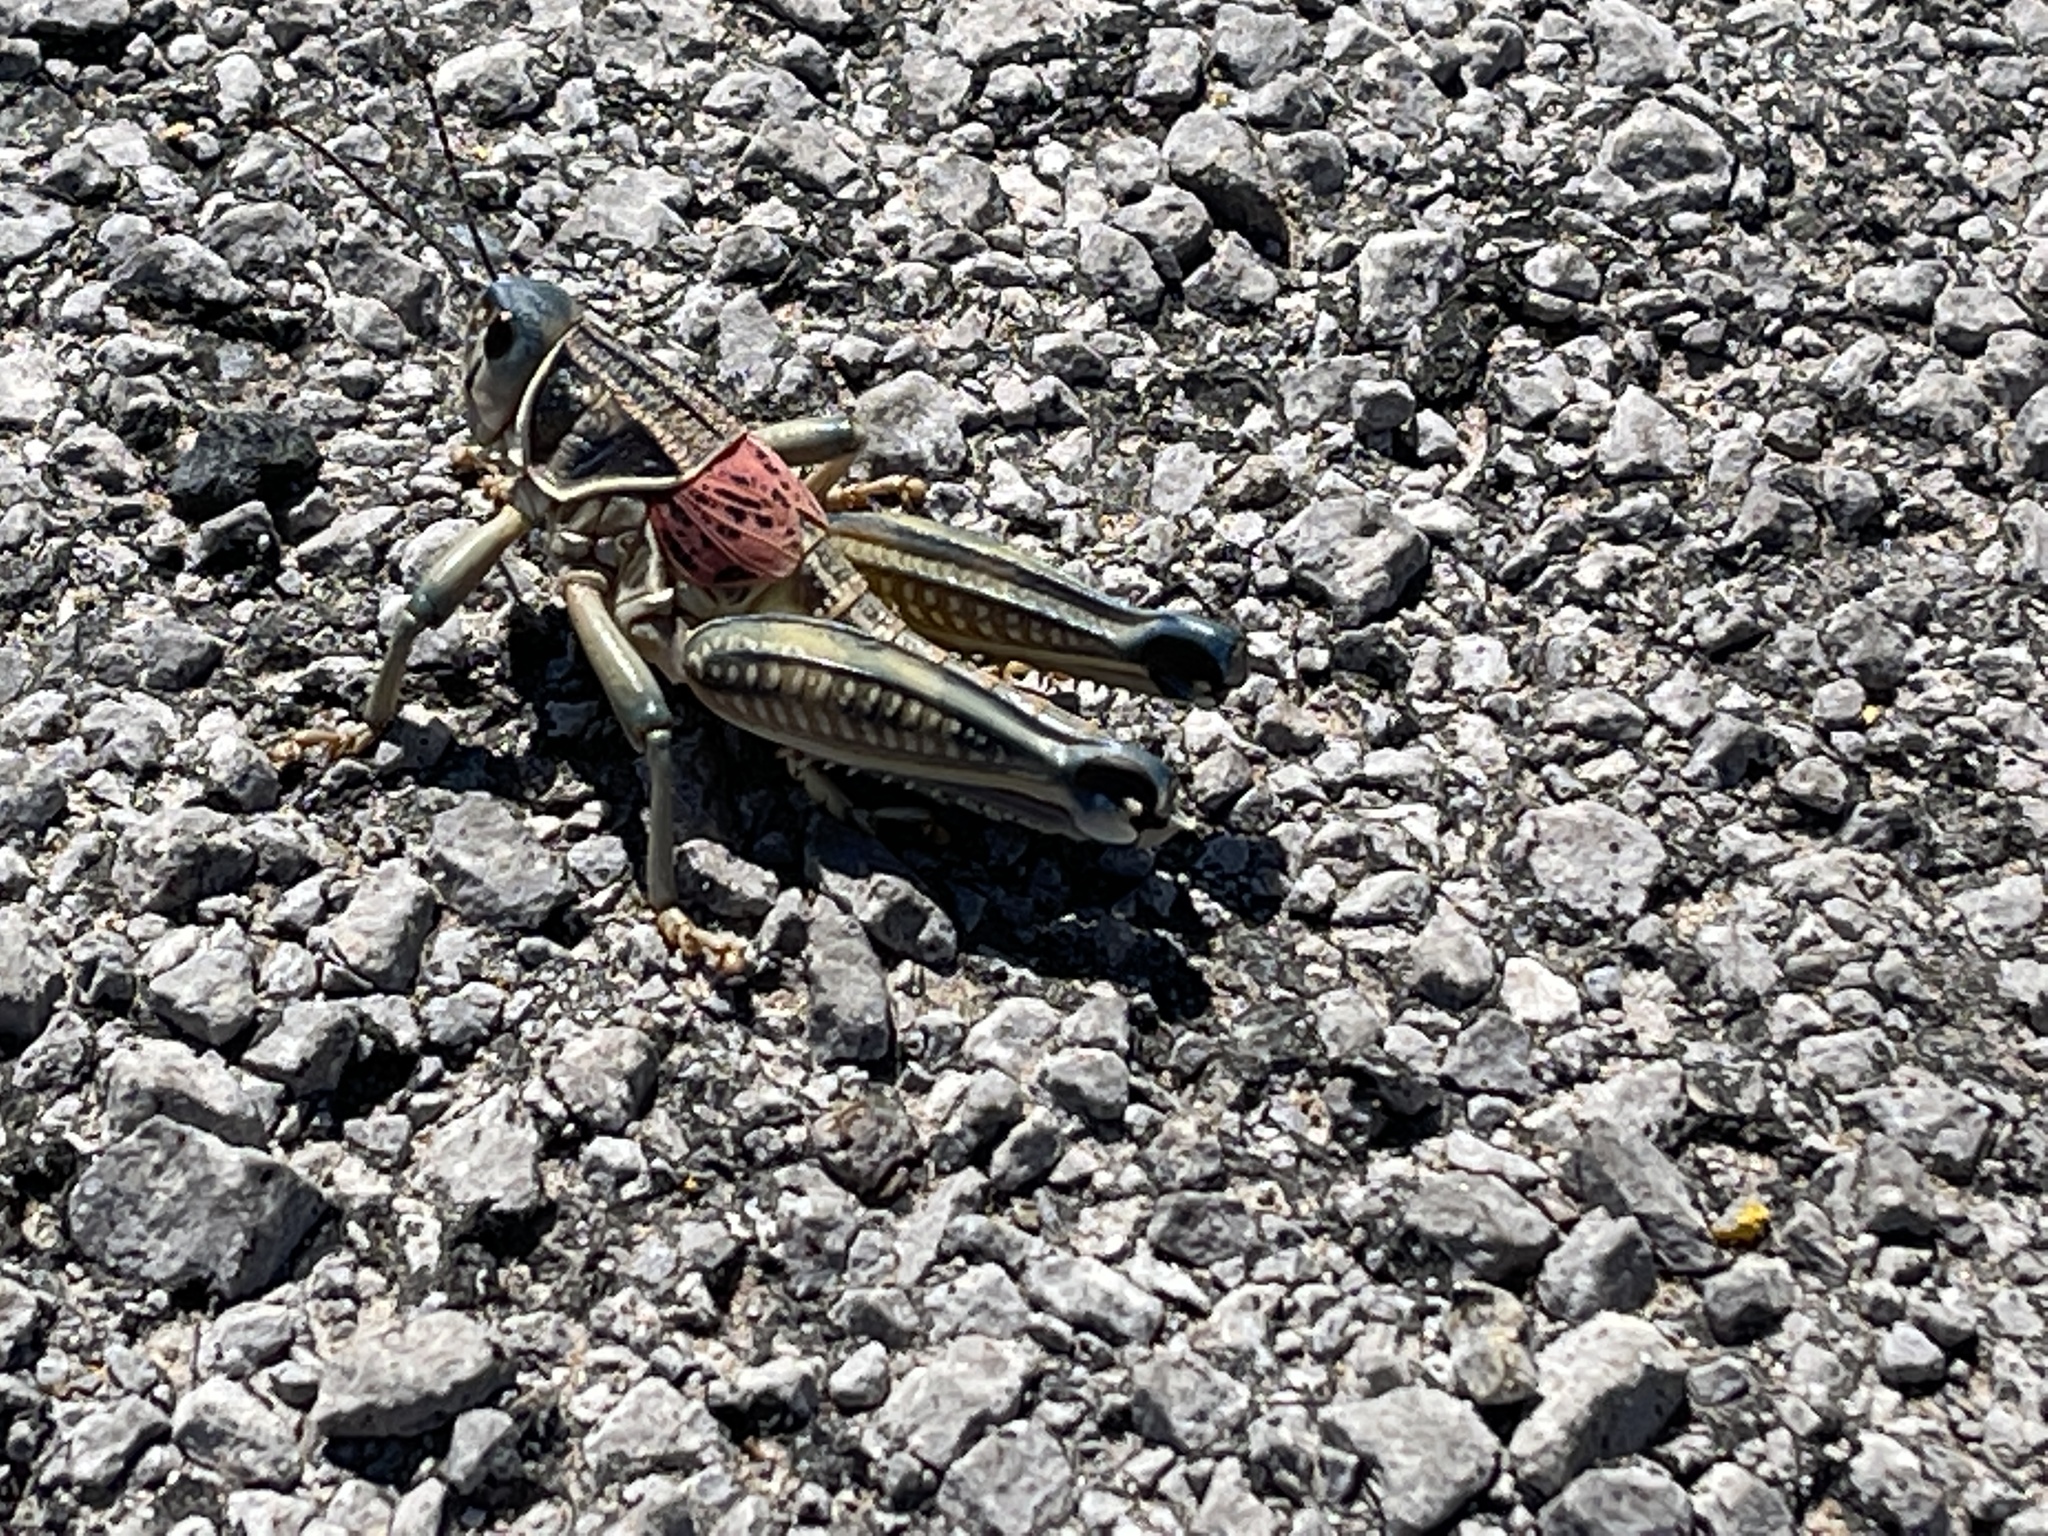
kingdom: Animalia
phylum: Arthropoda
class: Insecta
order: Orthoptera
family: Romaleidae
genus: Brachystola
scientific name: Brachystola magna
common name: Plains lubber grasshopper
